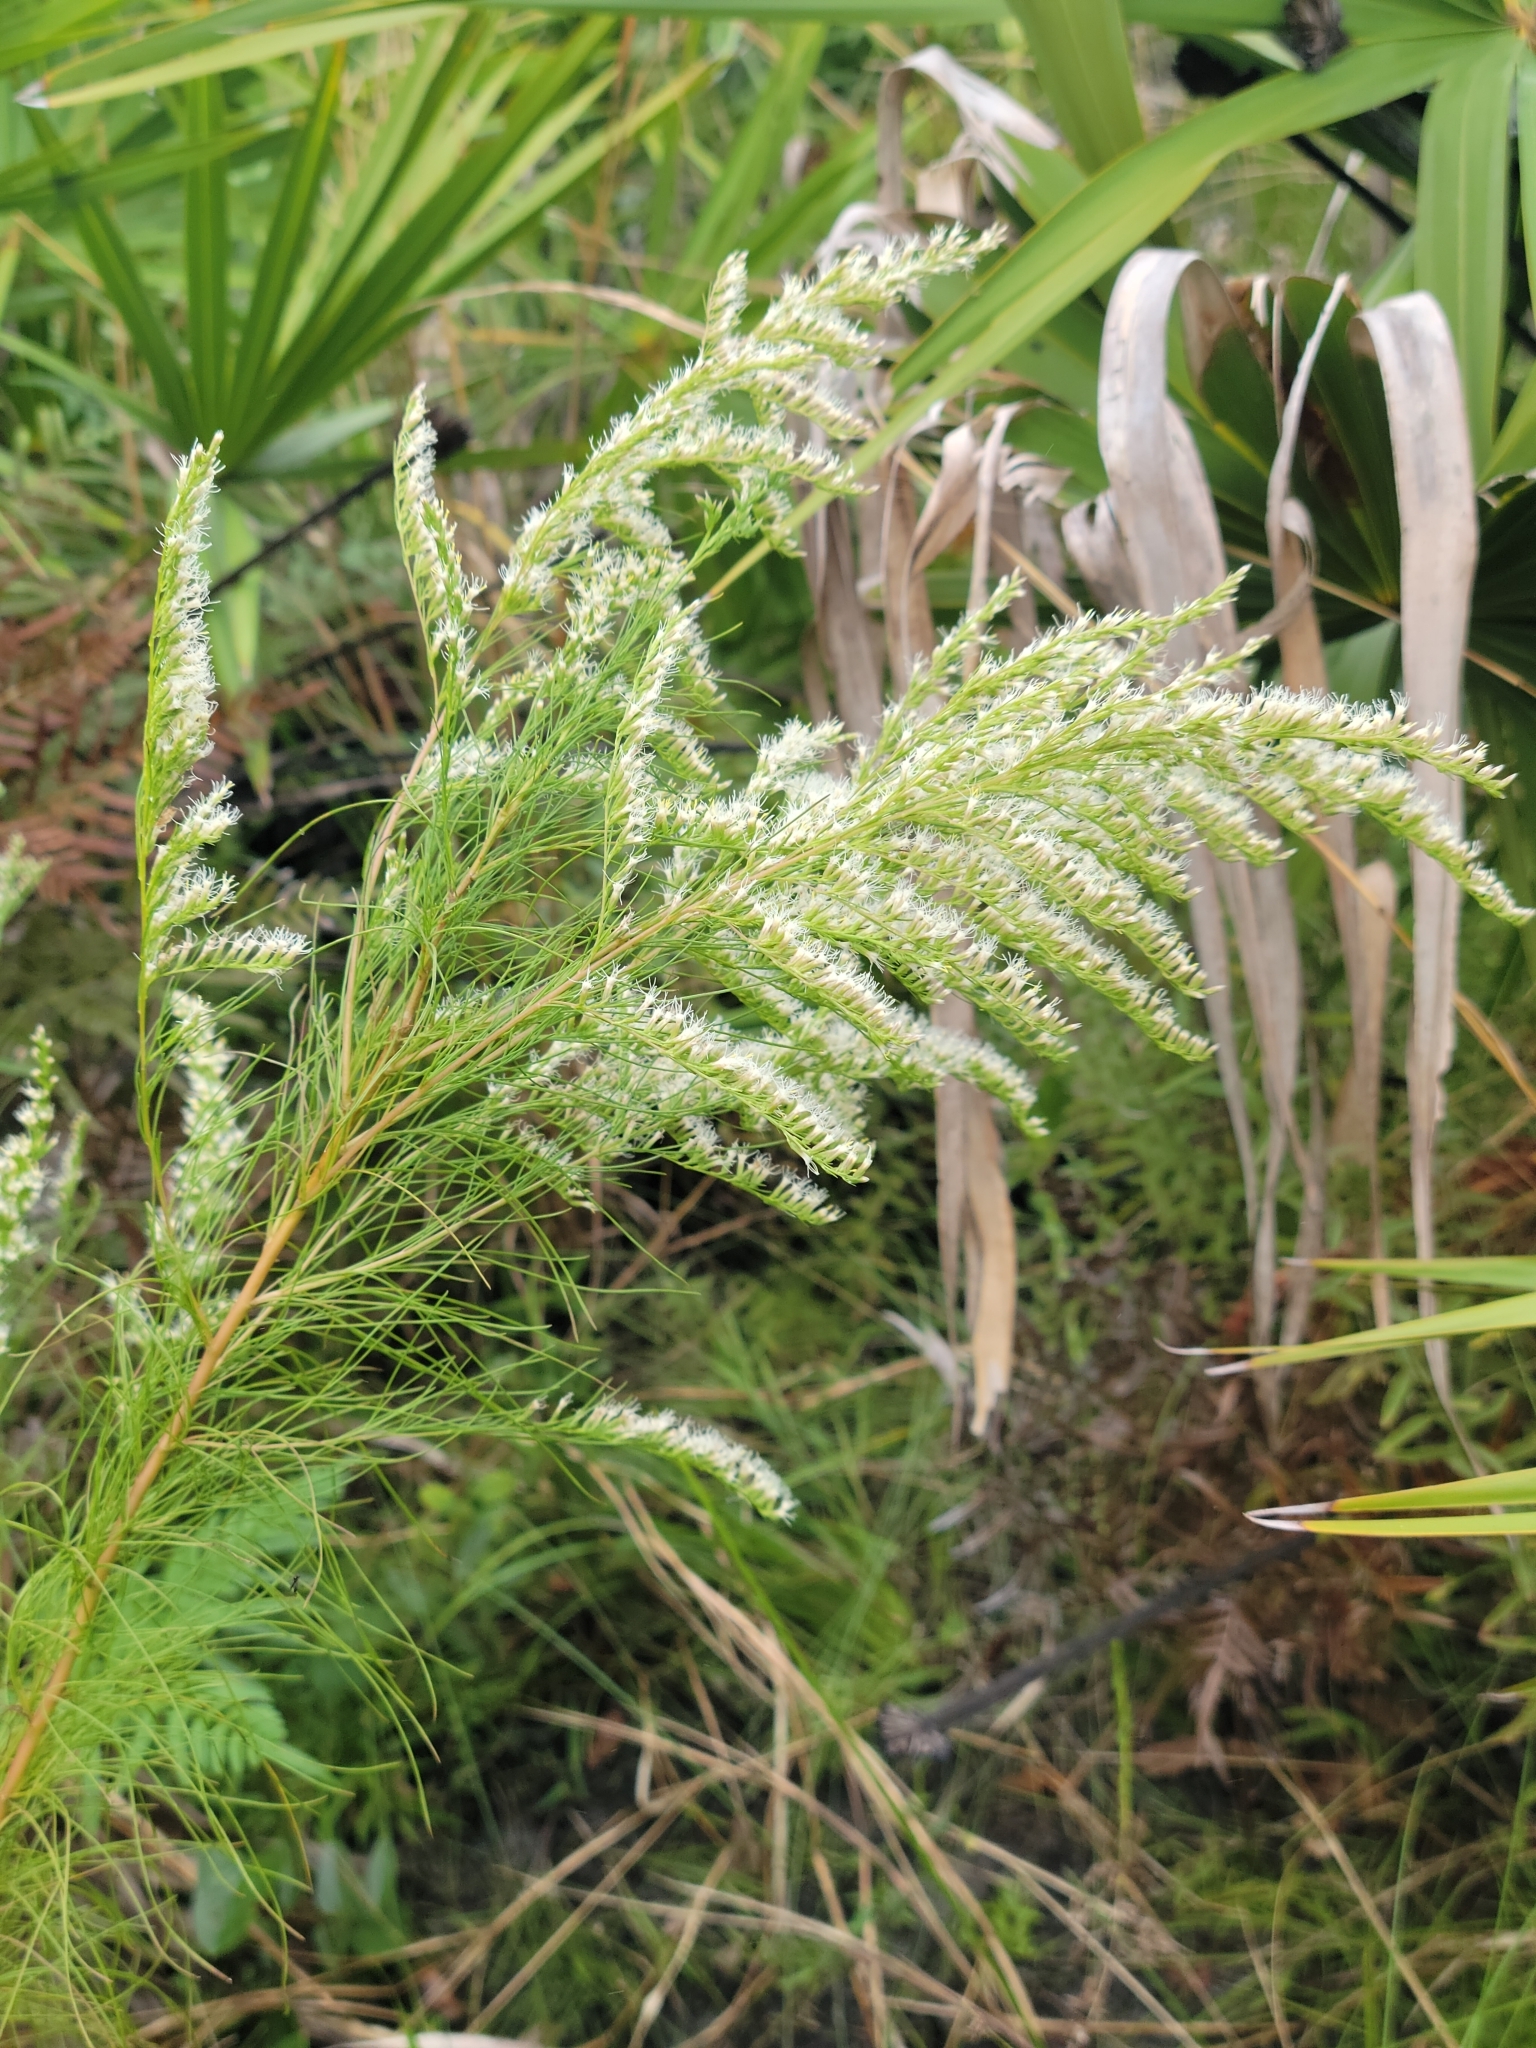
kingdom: Plantae
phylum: Tracheophyta
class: Magnoliopsida
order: Asterales
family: Asteraceae
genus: Eupatorium
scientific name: Eupatorium leptophyllum
